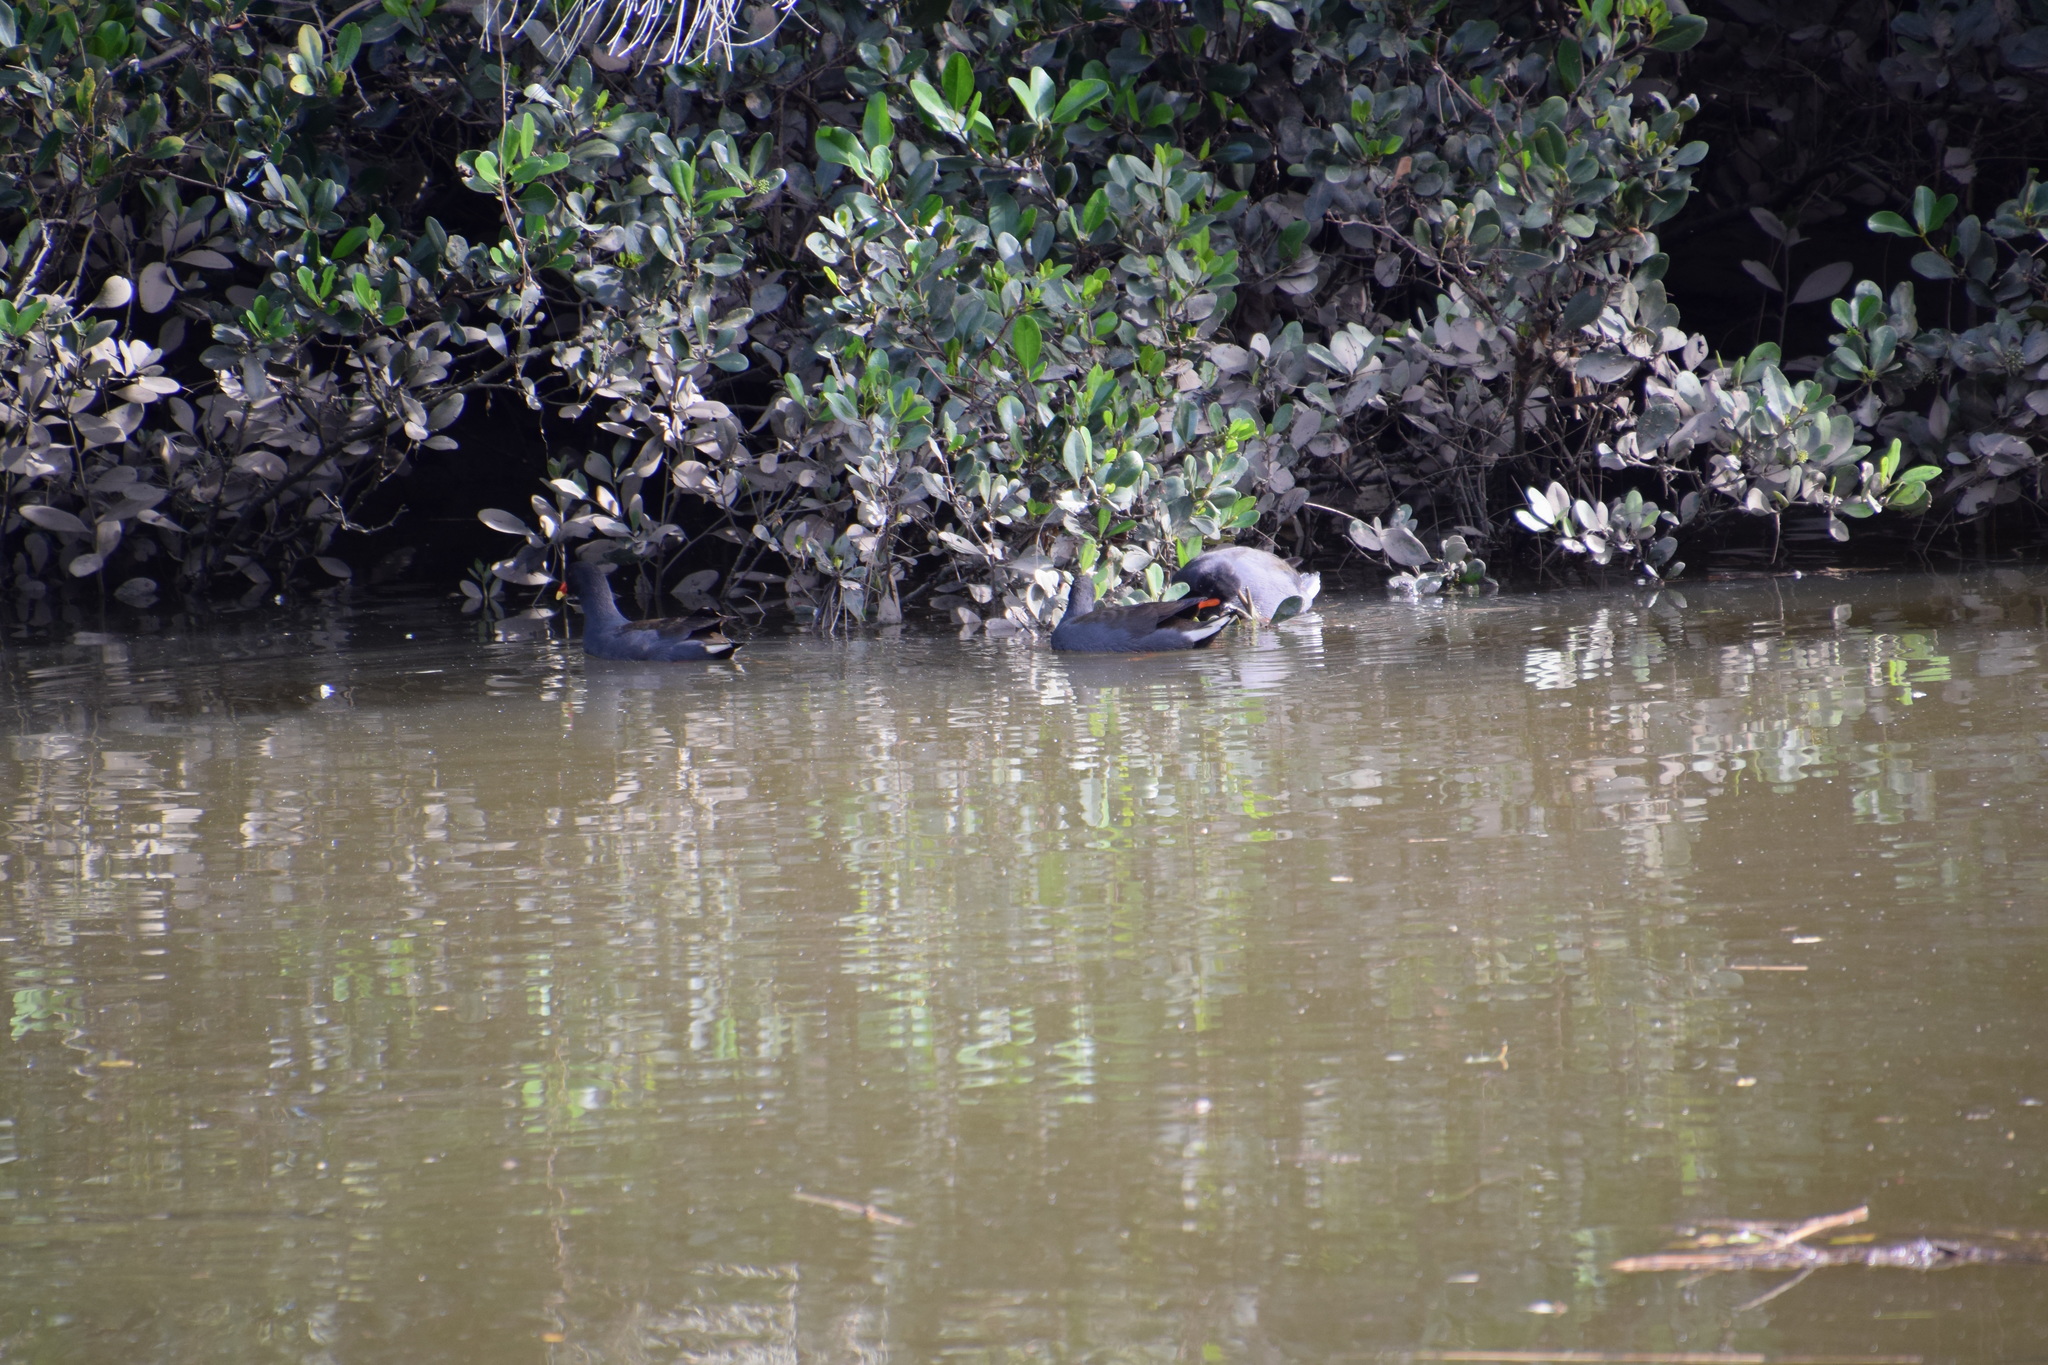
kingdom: Animalia
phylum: Chordata
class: Aves
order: Gruiformes
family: Rallidae
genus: Gallinula
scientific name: Gallinula tenebrosa
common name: Dusky moorhen
